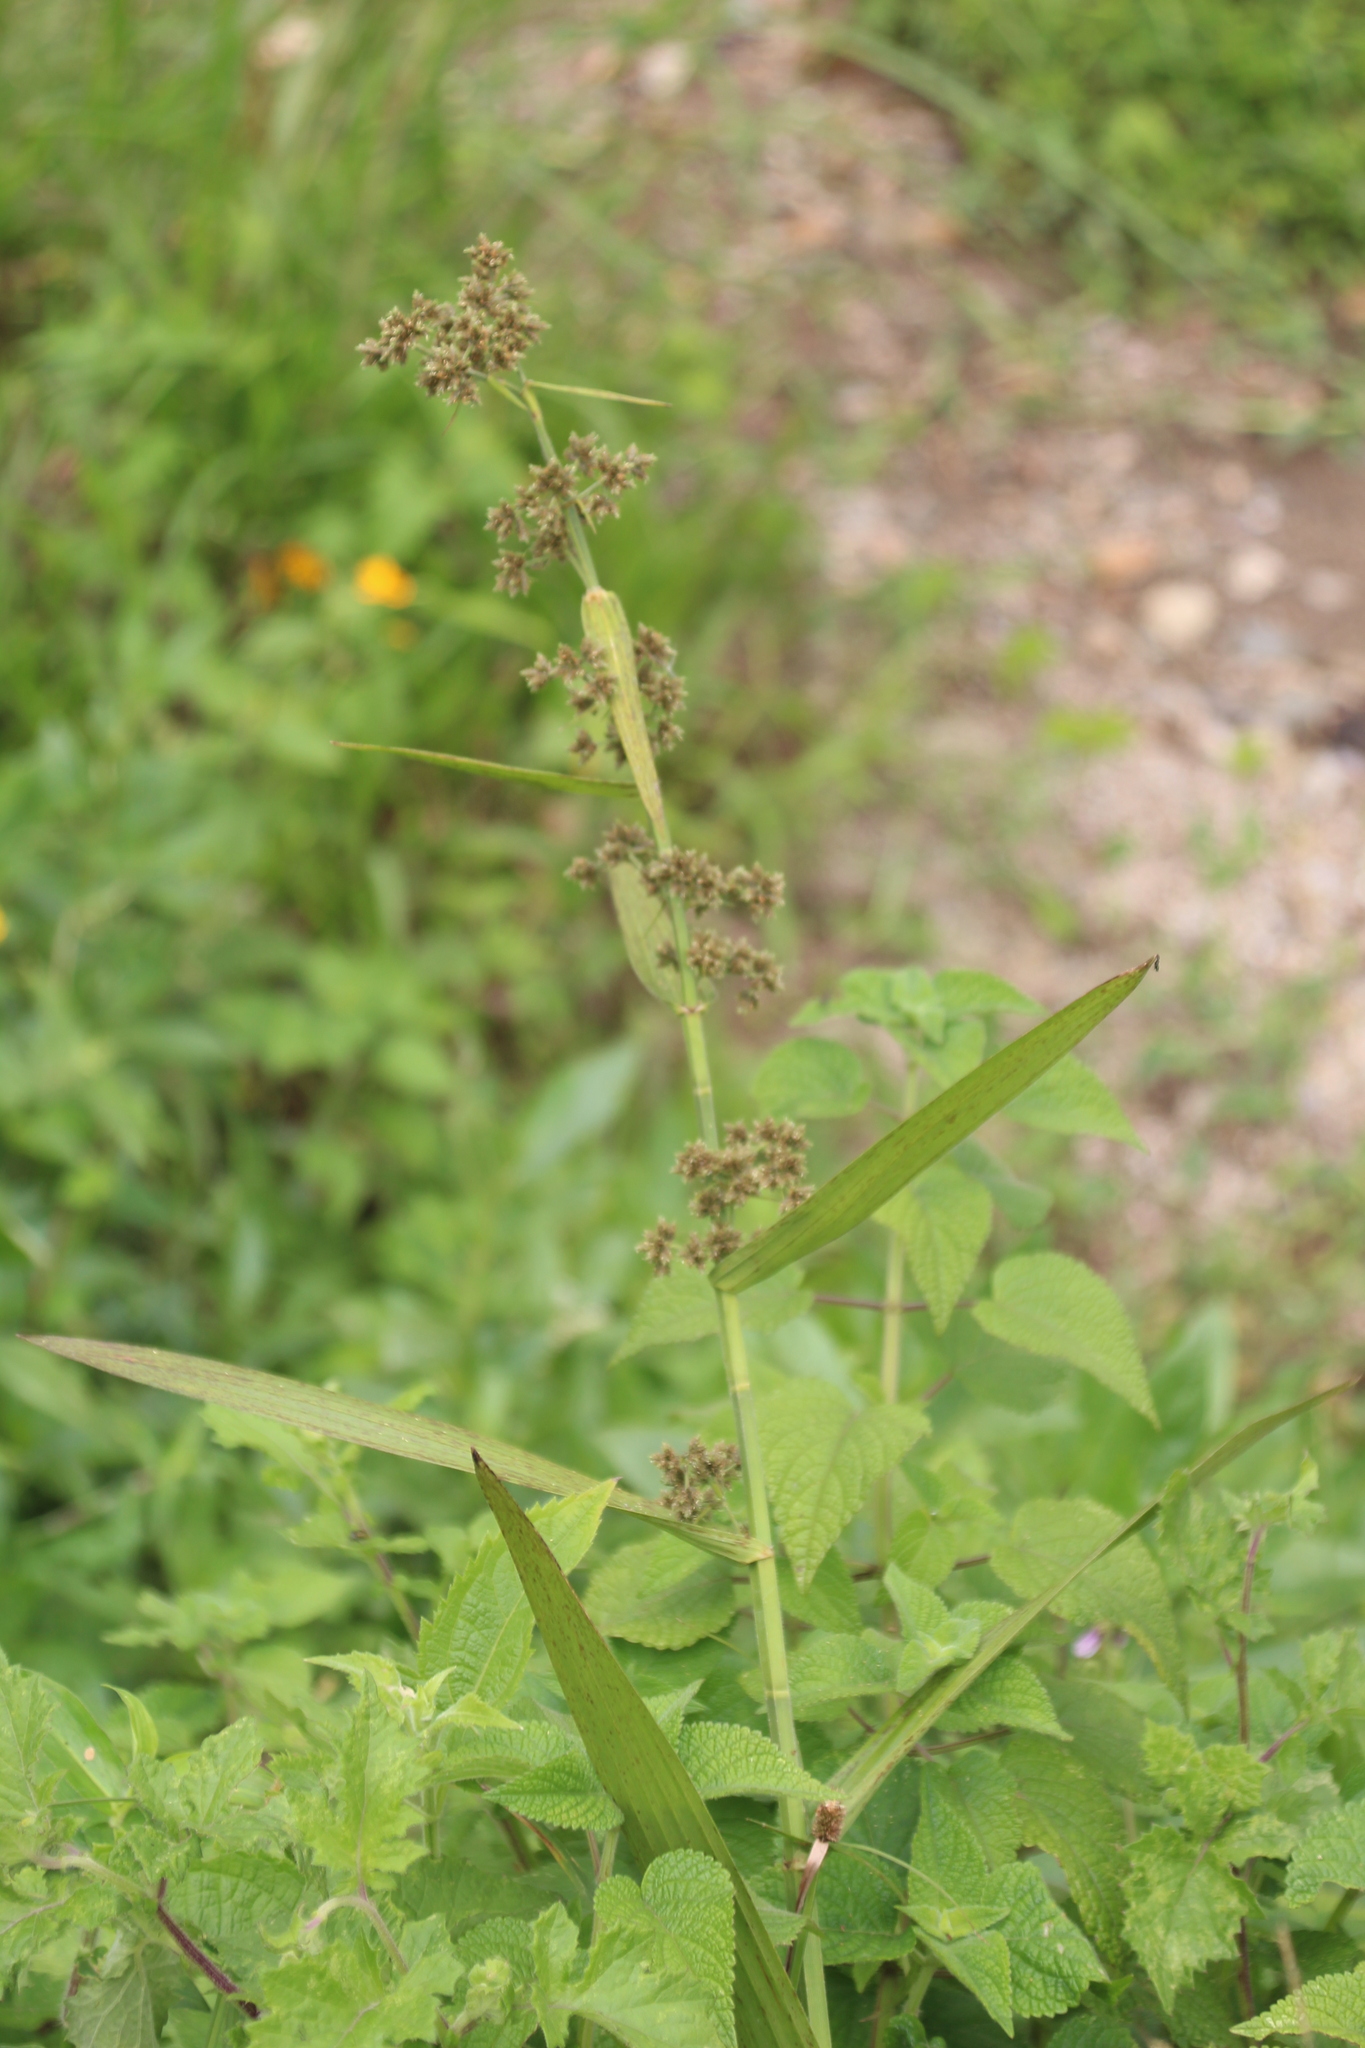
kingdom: Plantae
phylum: Tracheophyta
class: Liliopsida
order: Poales
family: Cyperaceae
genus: Fuirena
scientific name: Fuirena umbellata
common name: Yefen
